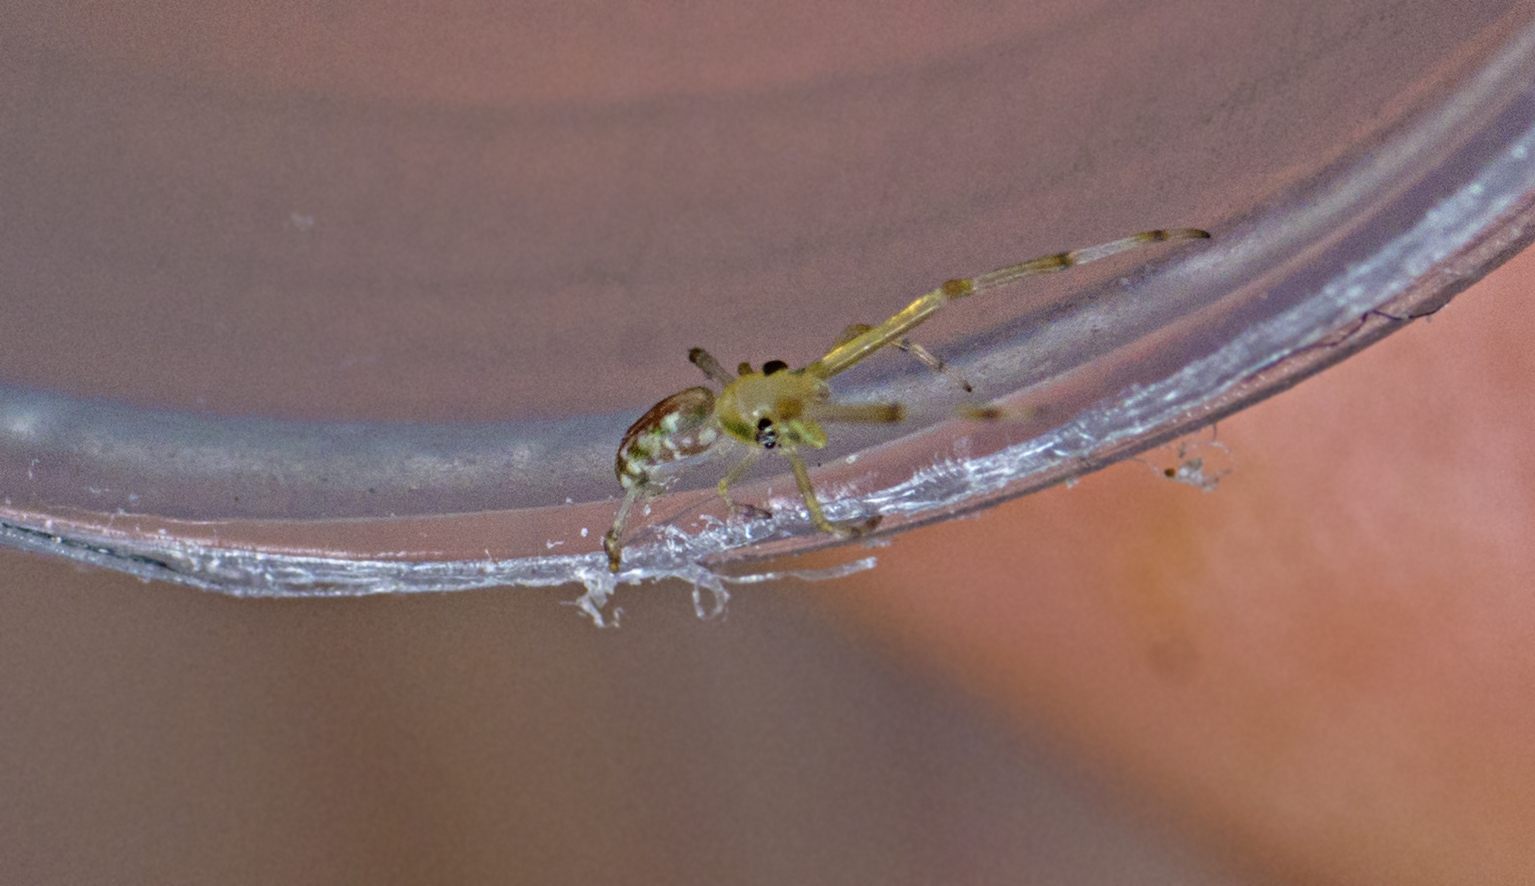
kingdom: Animalia
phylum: Arthropoda
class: Arachnida
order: Araneae
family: Uloboridae
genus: Miagrammopes
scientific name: Miagrammopes flavus
